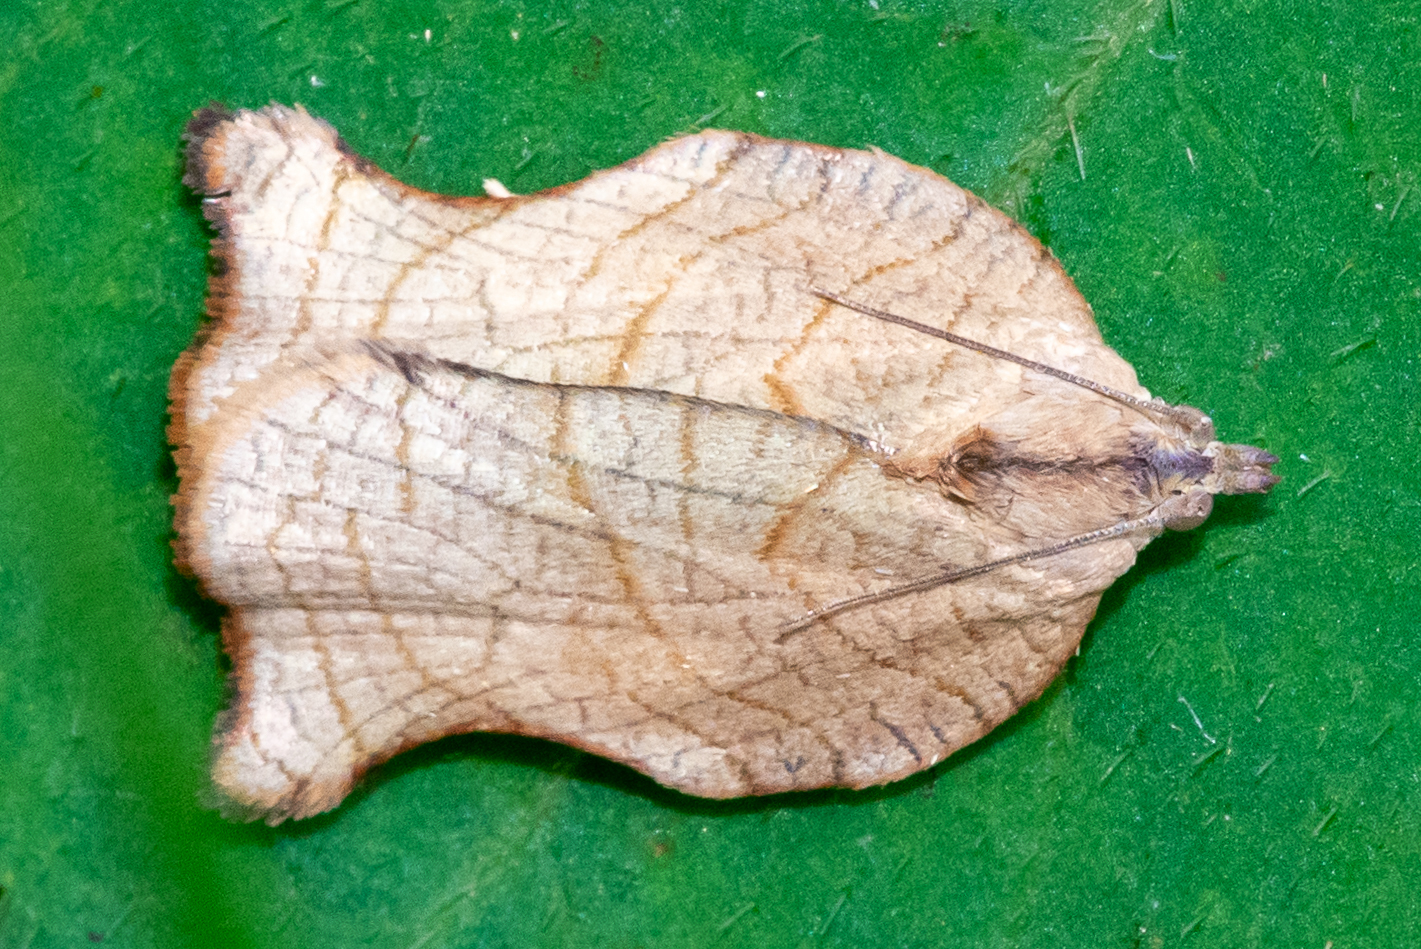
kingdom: Animalia
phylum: Arthropoda
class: Insecta
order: Lepidoptera
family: Tortricidae
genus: Archips
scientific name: Archips purpurana
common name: Omnivorous leafroller
